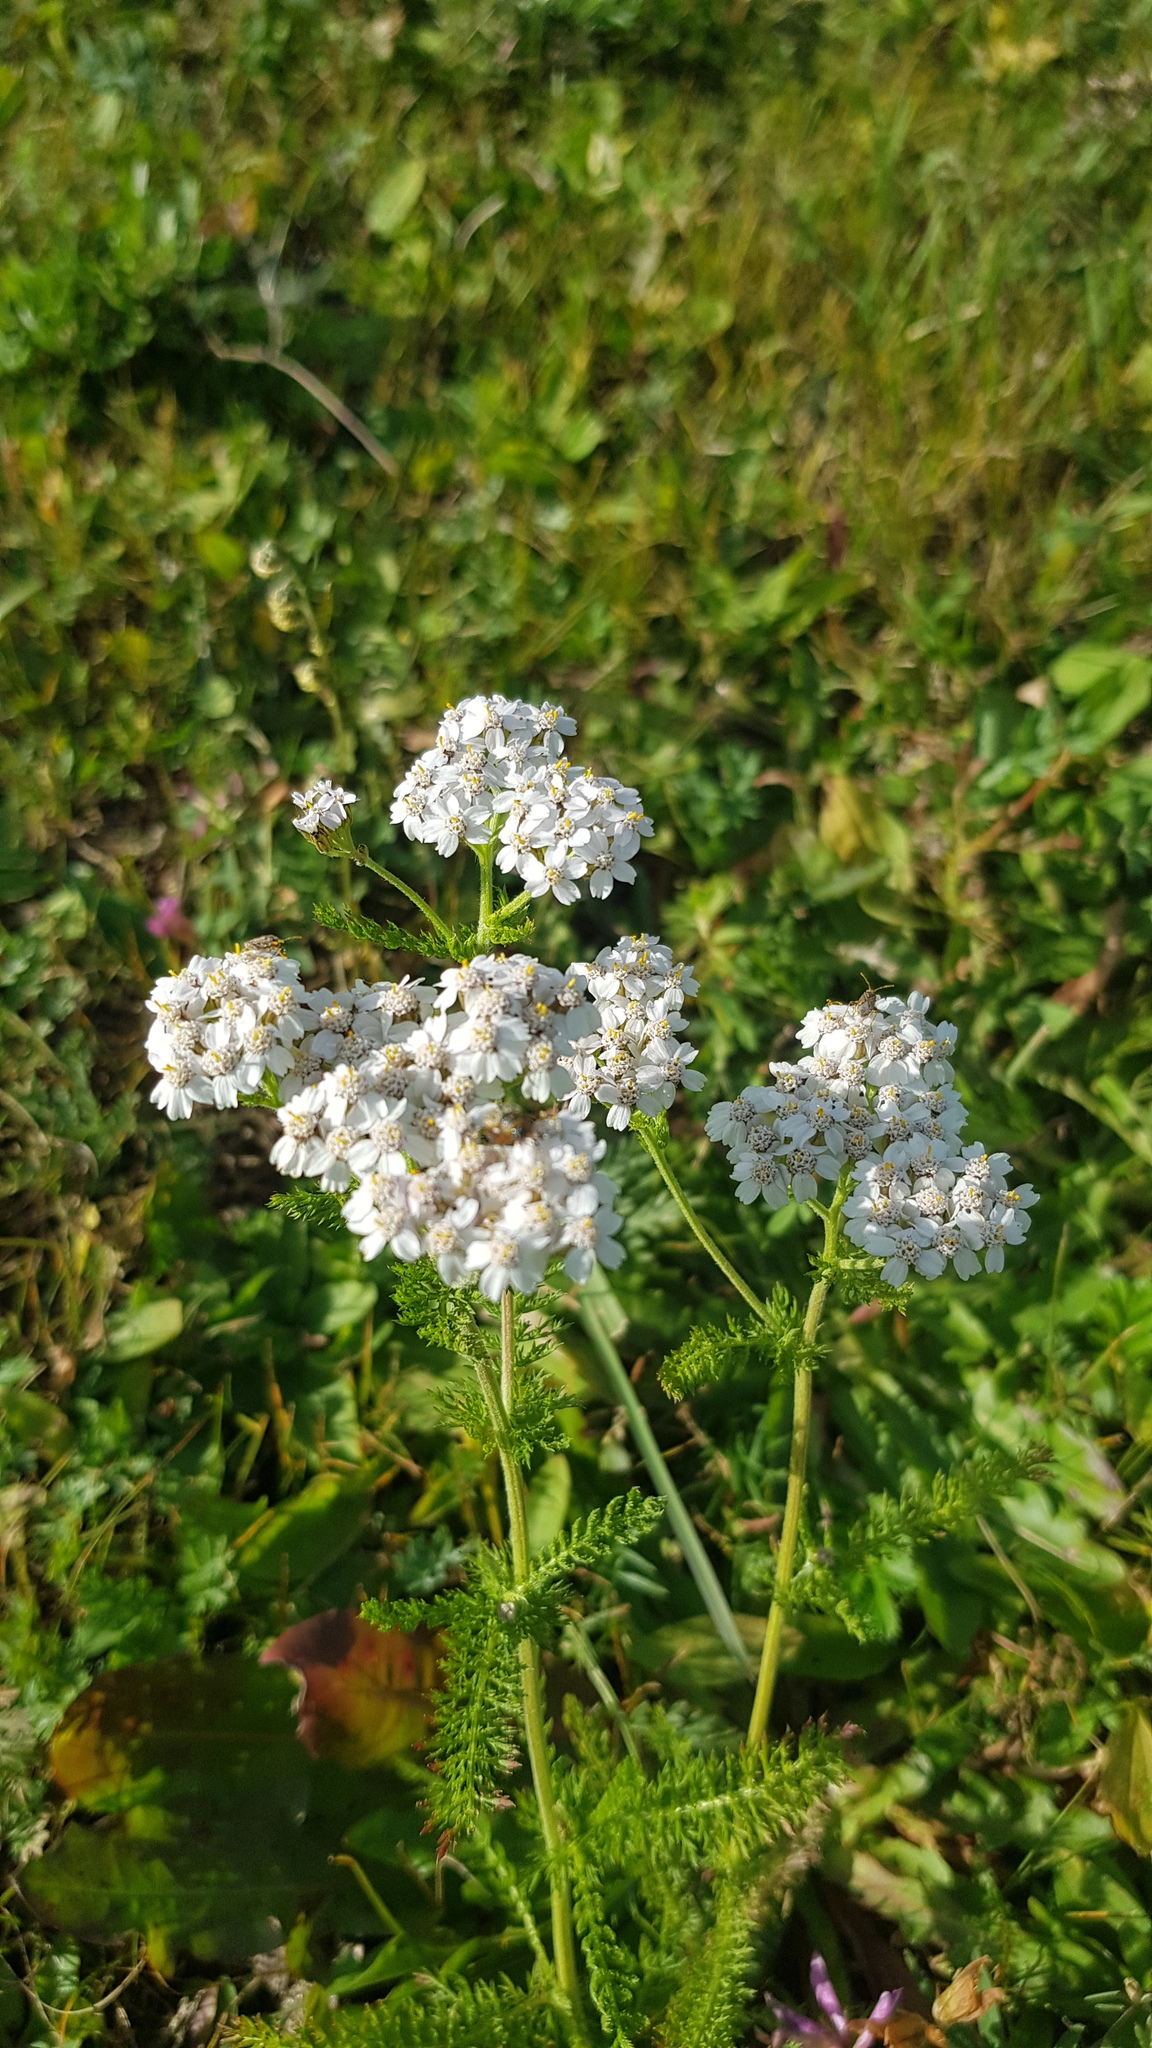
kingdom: Plantae
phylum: Tracheophyta
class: Magnoliopsida
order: Asterales
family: Asteraceae
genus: Achillea
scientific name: Achillea asiatica
